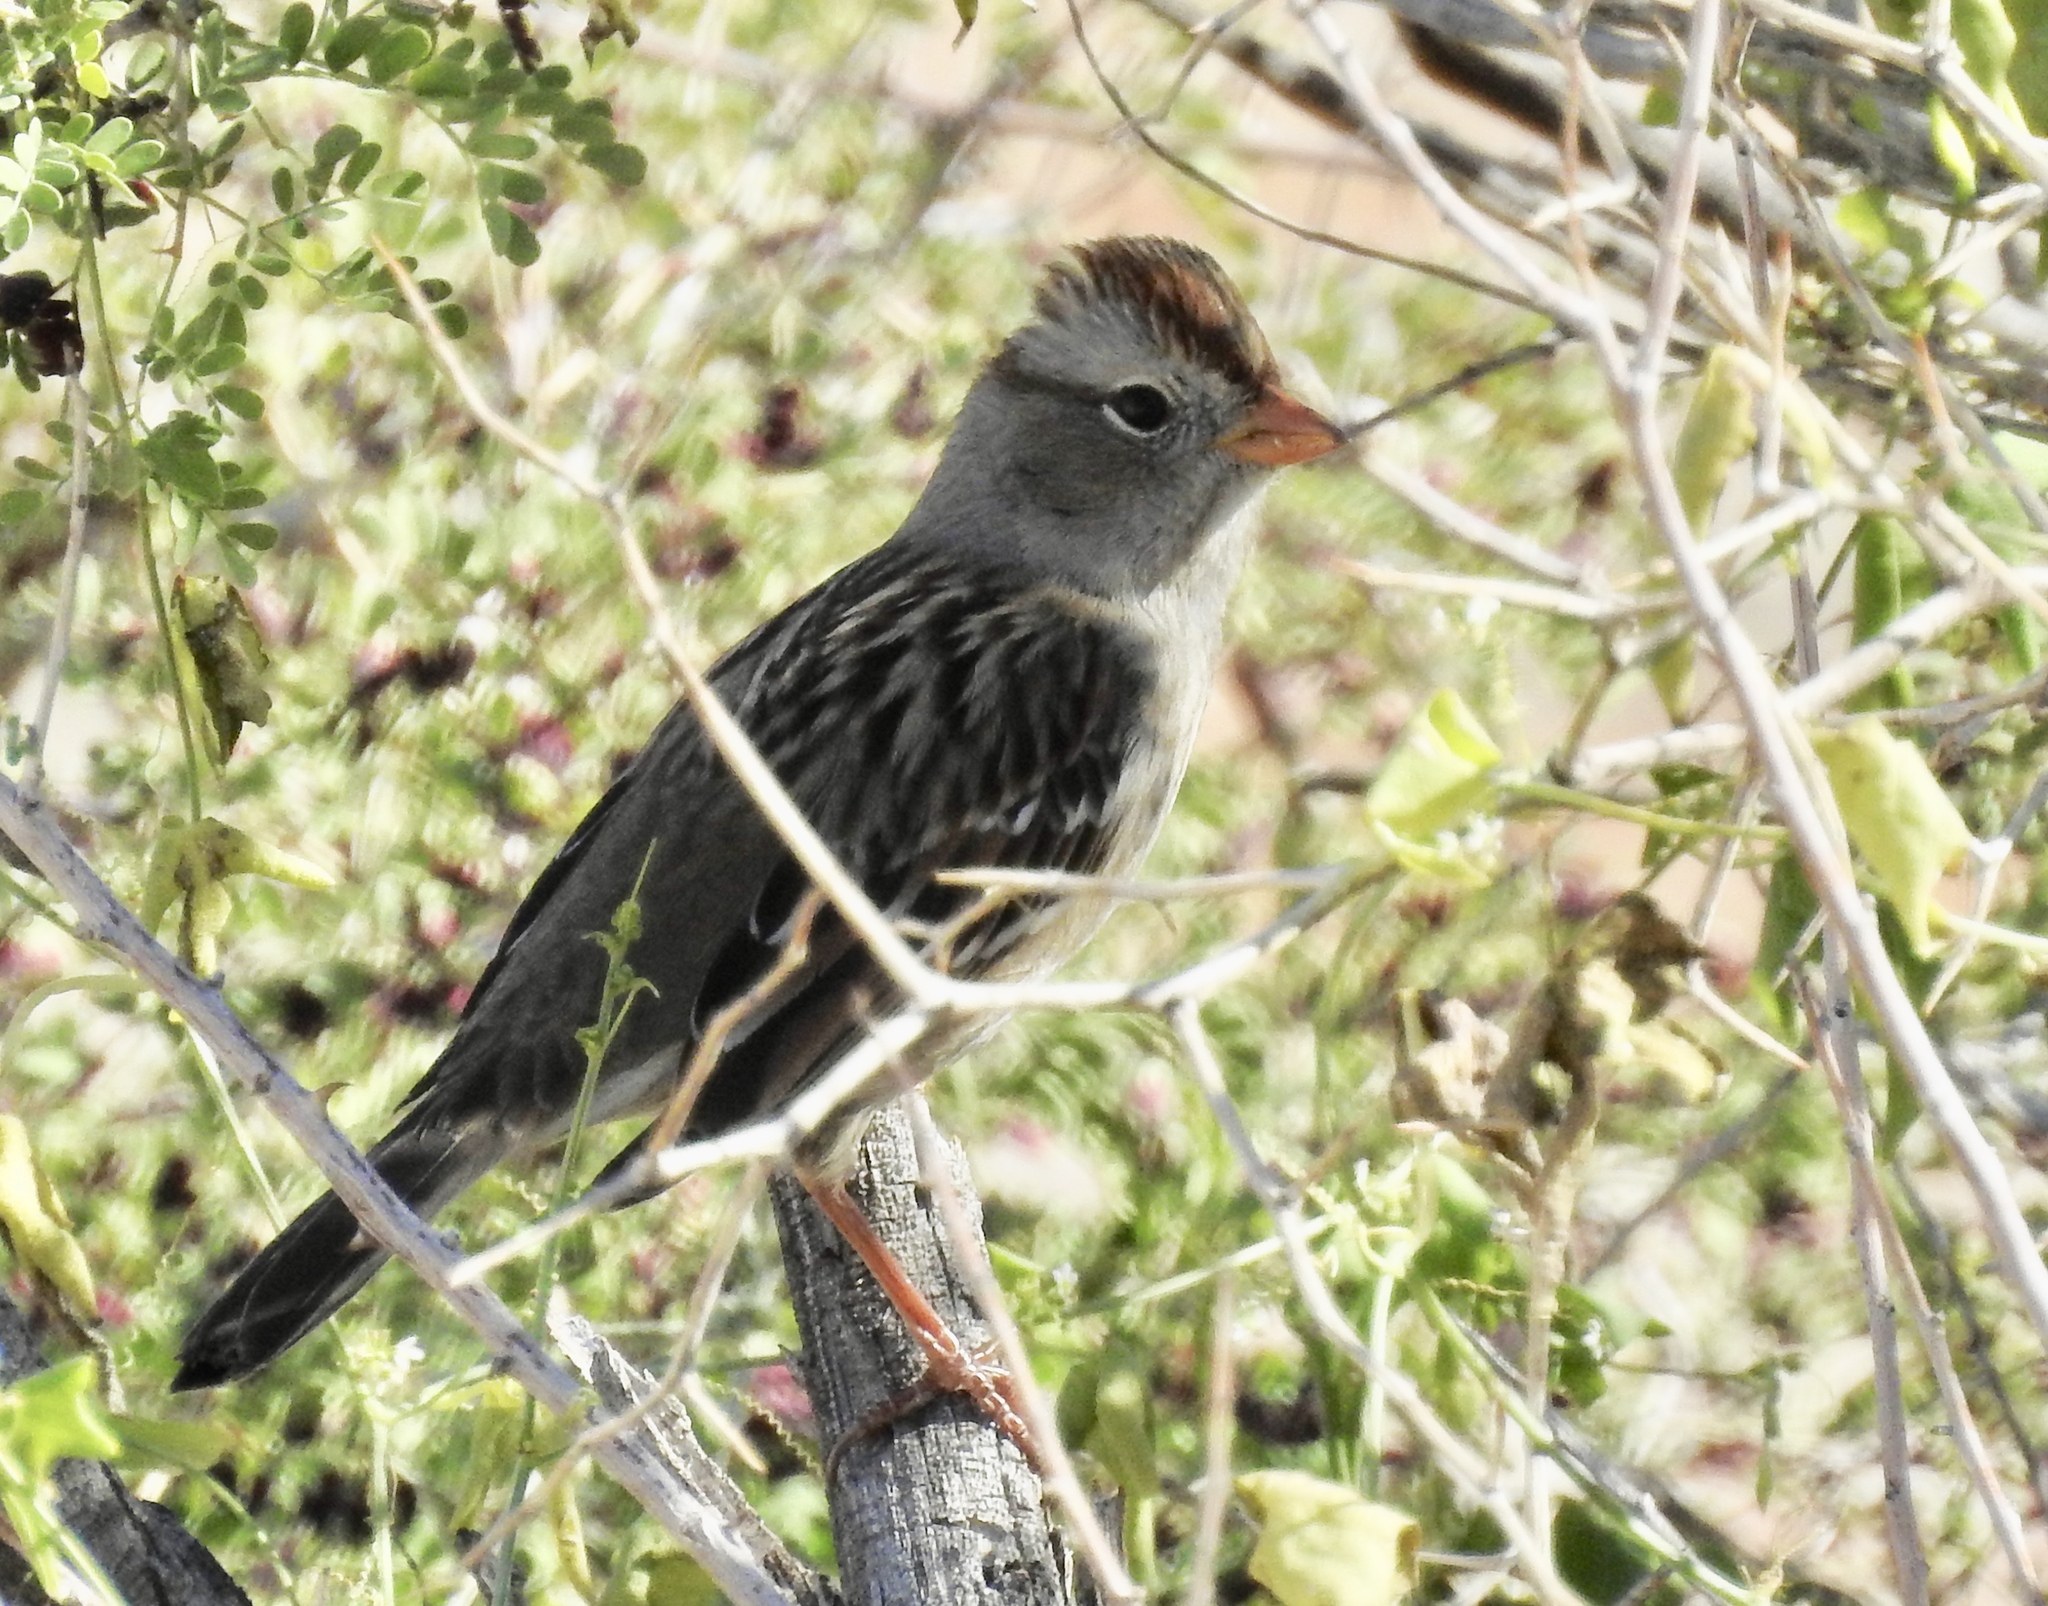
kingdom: Animalia
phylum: Chordata
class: Aves
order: Passeriformes
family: Passerellidae
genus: Zonotrichia
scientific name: Zonotrichia leucophrys
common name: White-crowned sparrow
